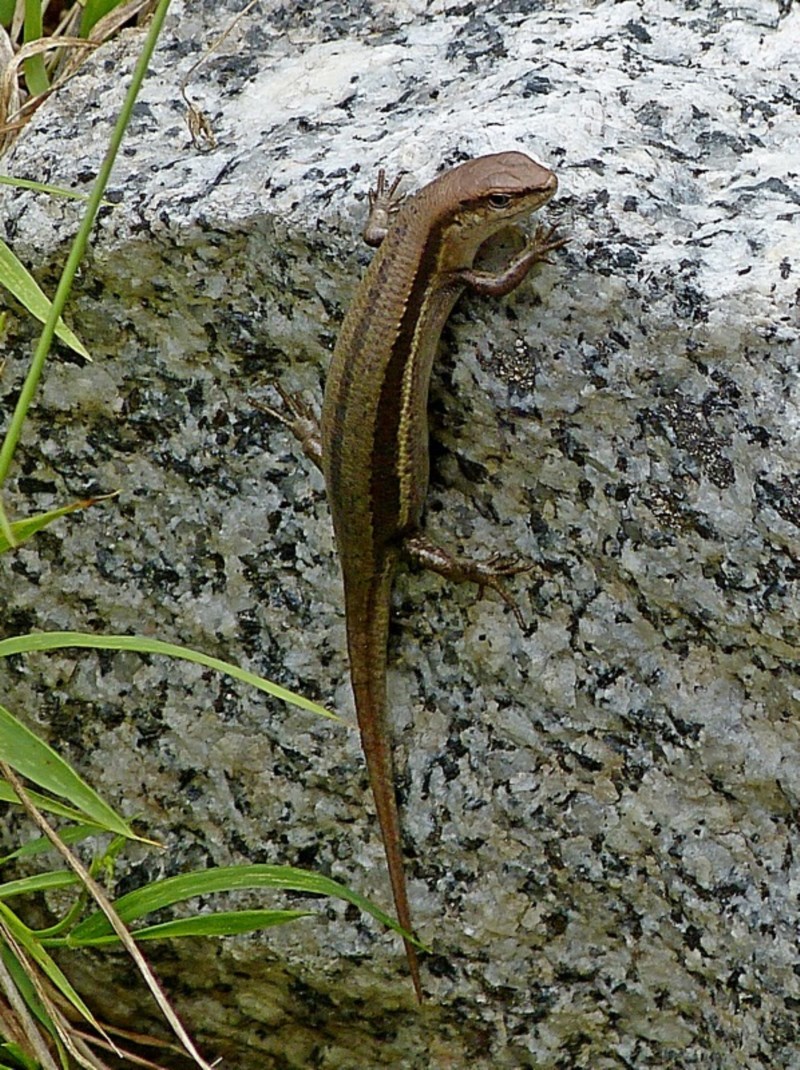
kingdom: Animalia
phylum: Chordata
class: Squamata
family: Scincidae
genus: Lampropholis
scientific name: Lampropholis guichenoti
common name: Garden skink
